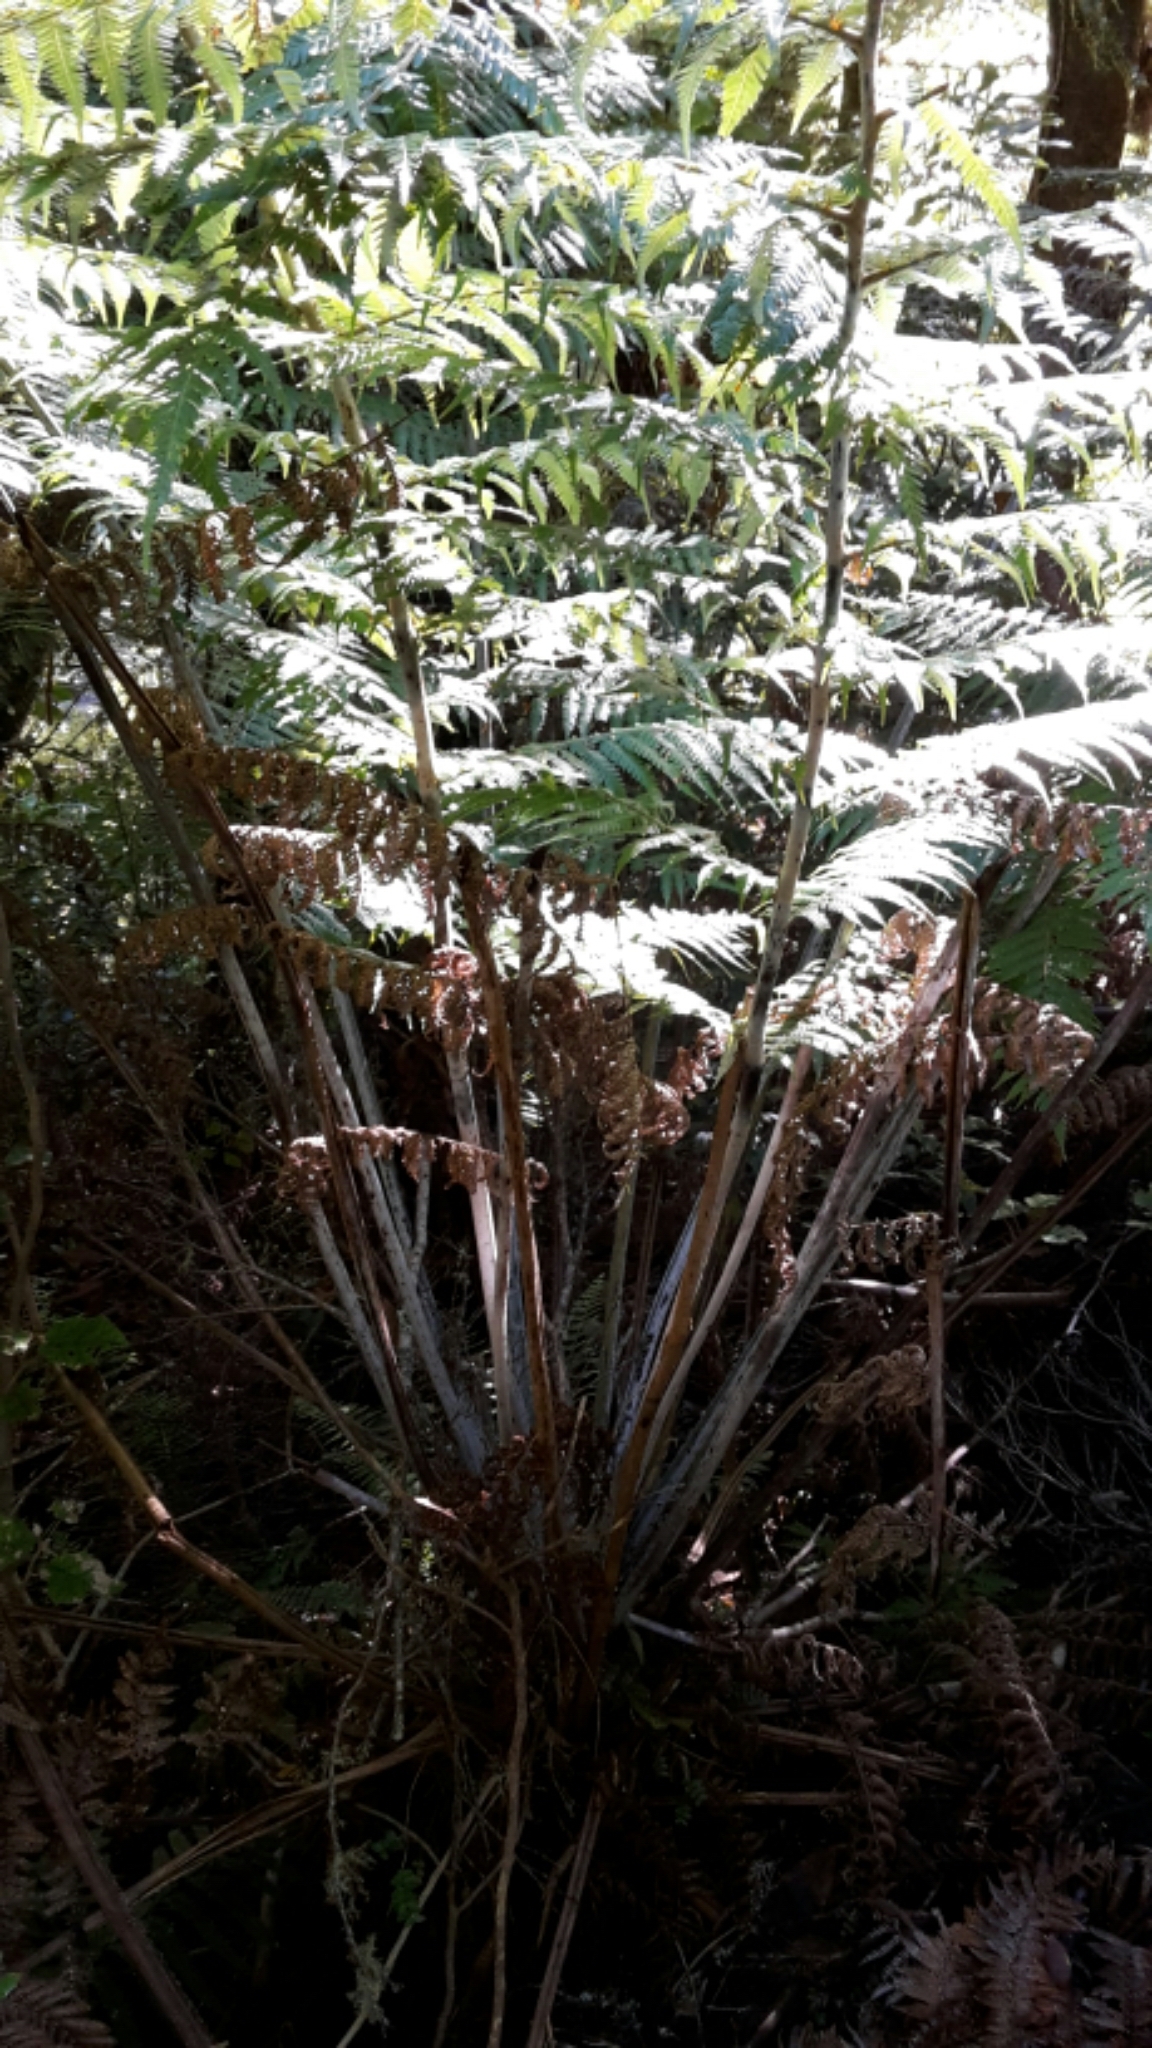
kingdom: Plantae
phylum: Tracheophyta
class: Polypodiopsida
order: Cyatheales
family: Cyatheaceae
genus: Alsophila
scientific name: Alsophila dealbata
